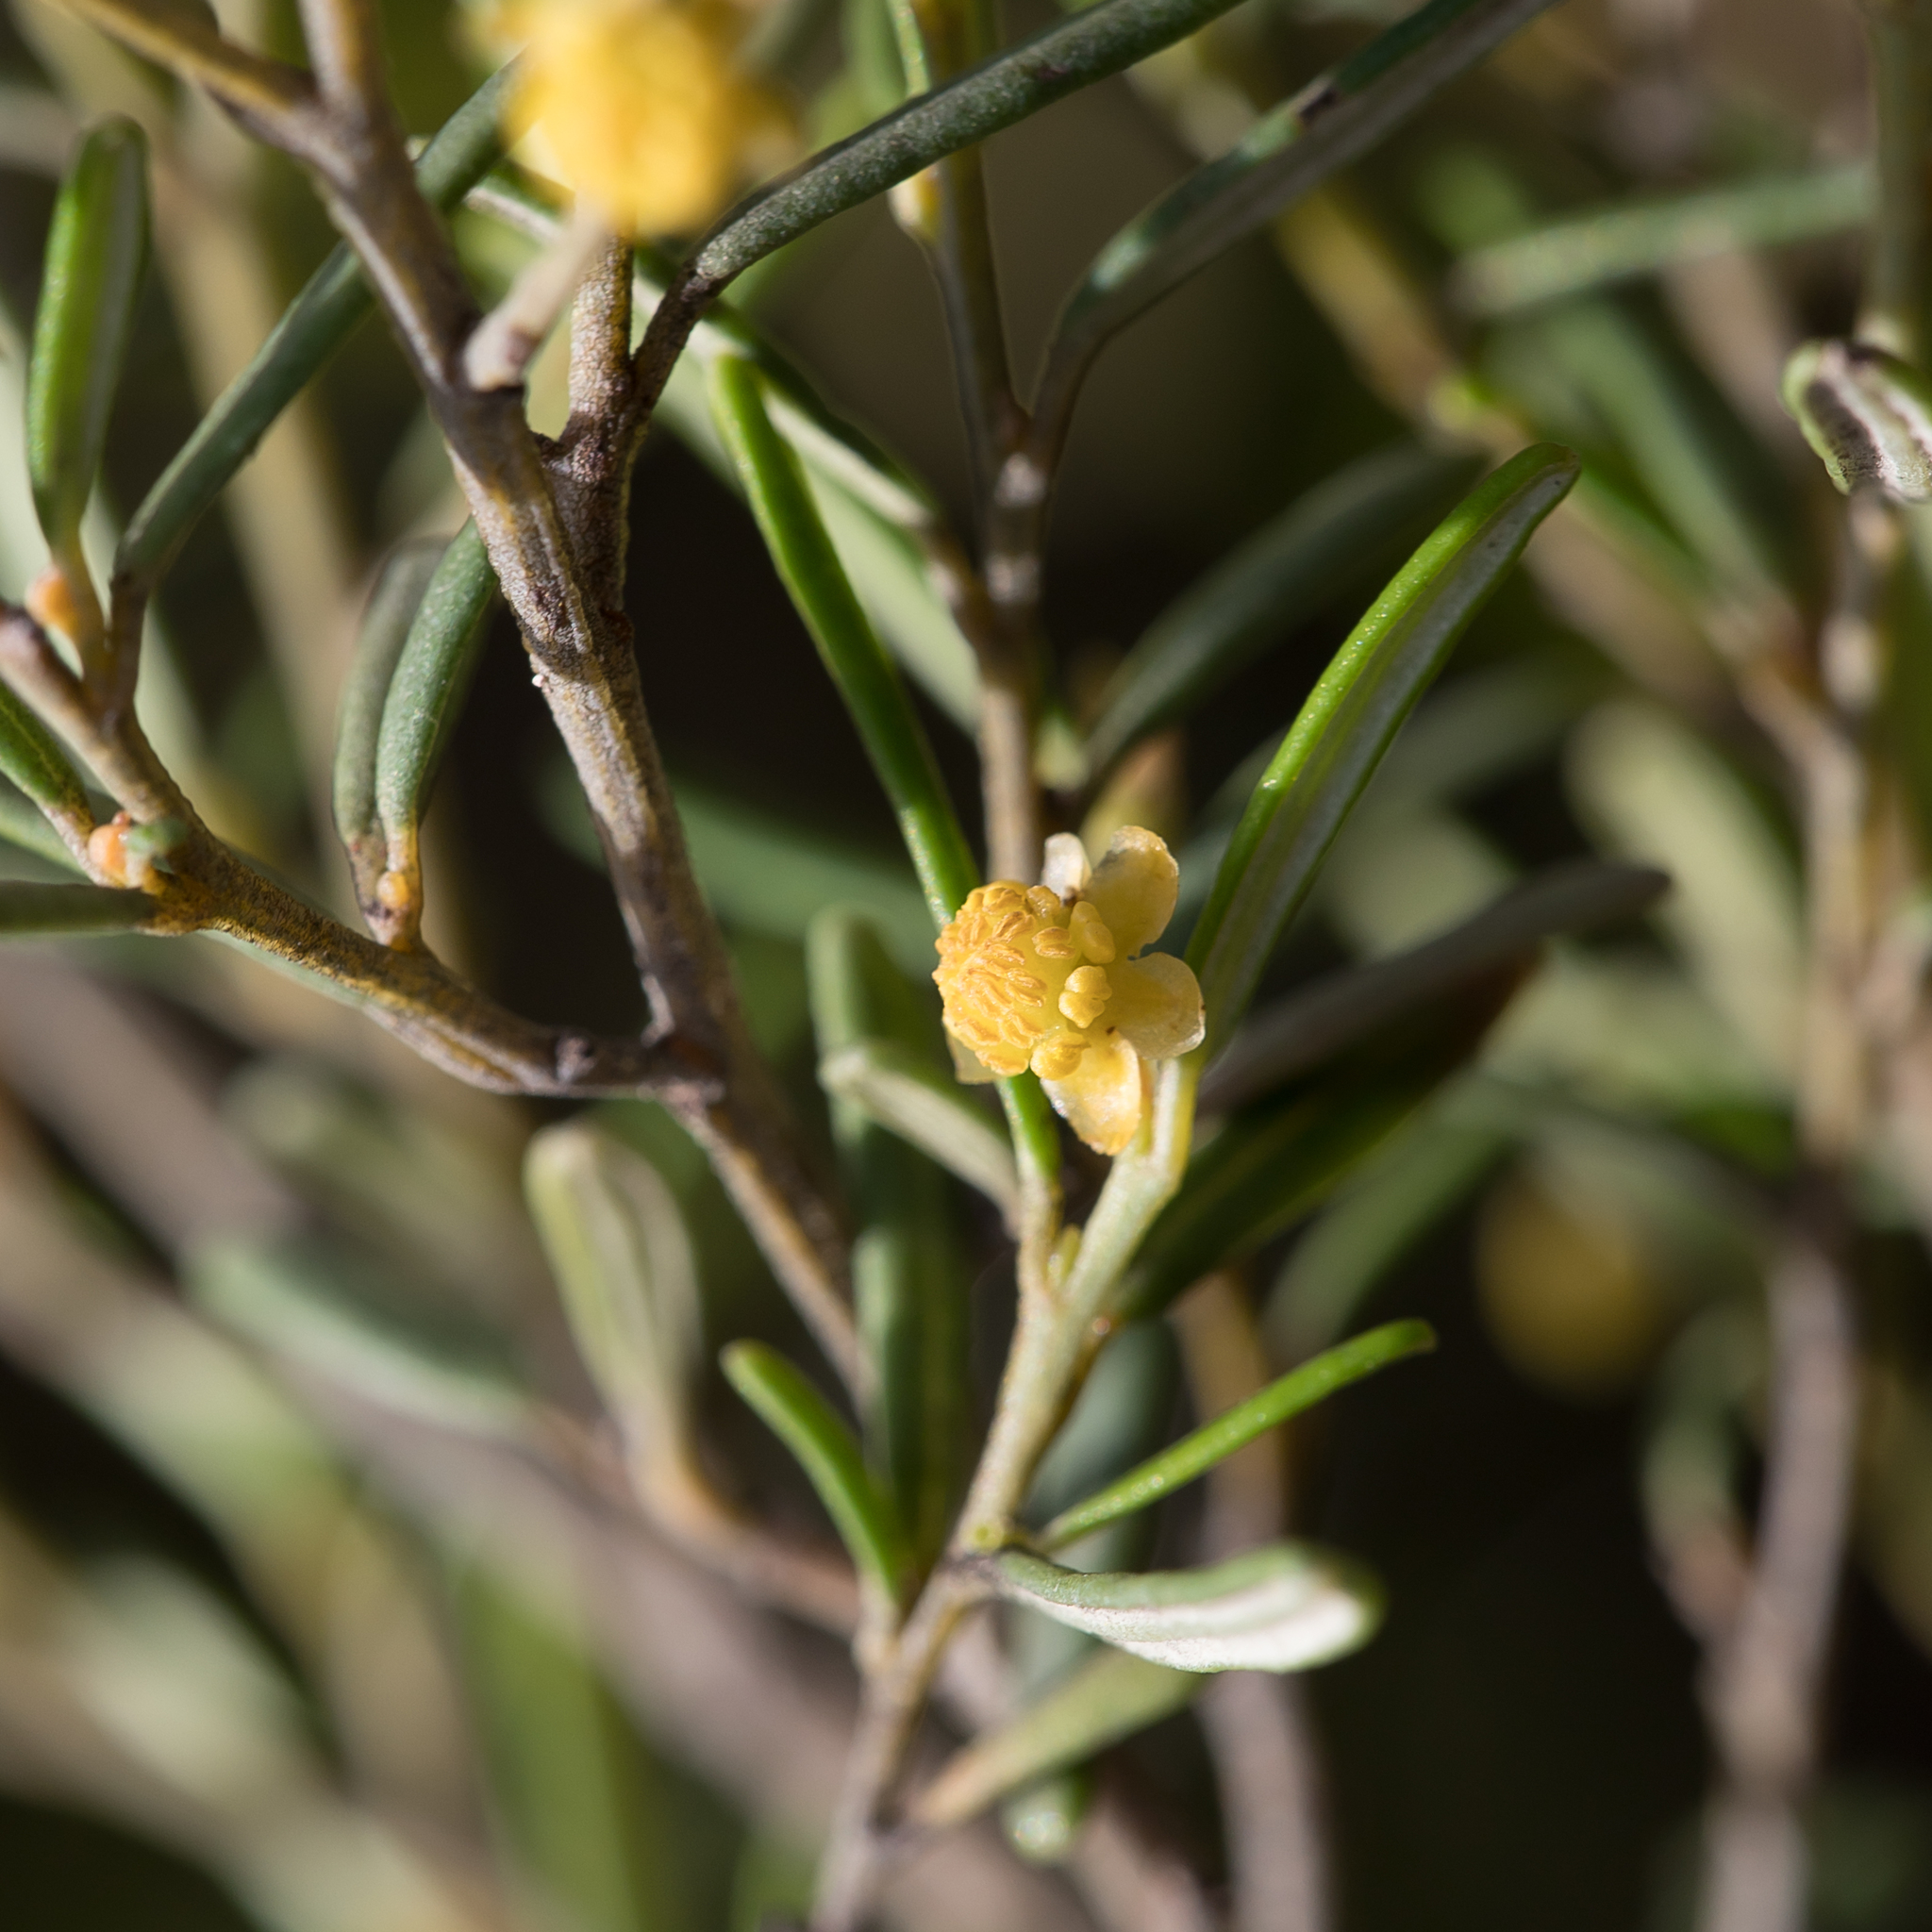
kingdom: Plantae
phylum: Tracheophyta
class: Magnoliopsida
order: Malpighiales
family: Euphorbiaceae
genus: Beyeria
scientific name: Beyeria lechenaultii
